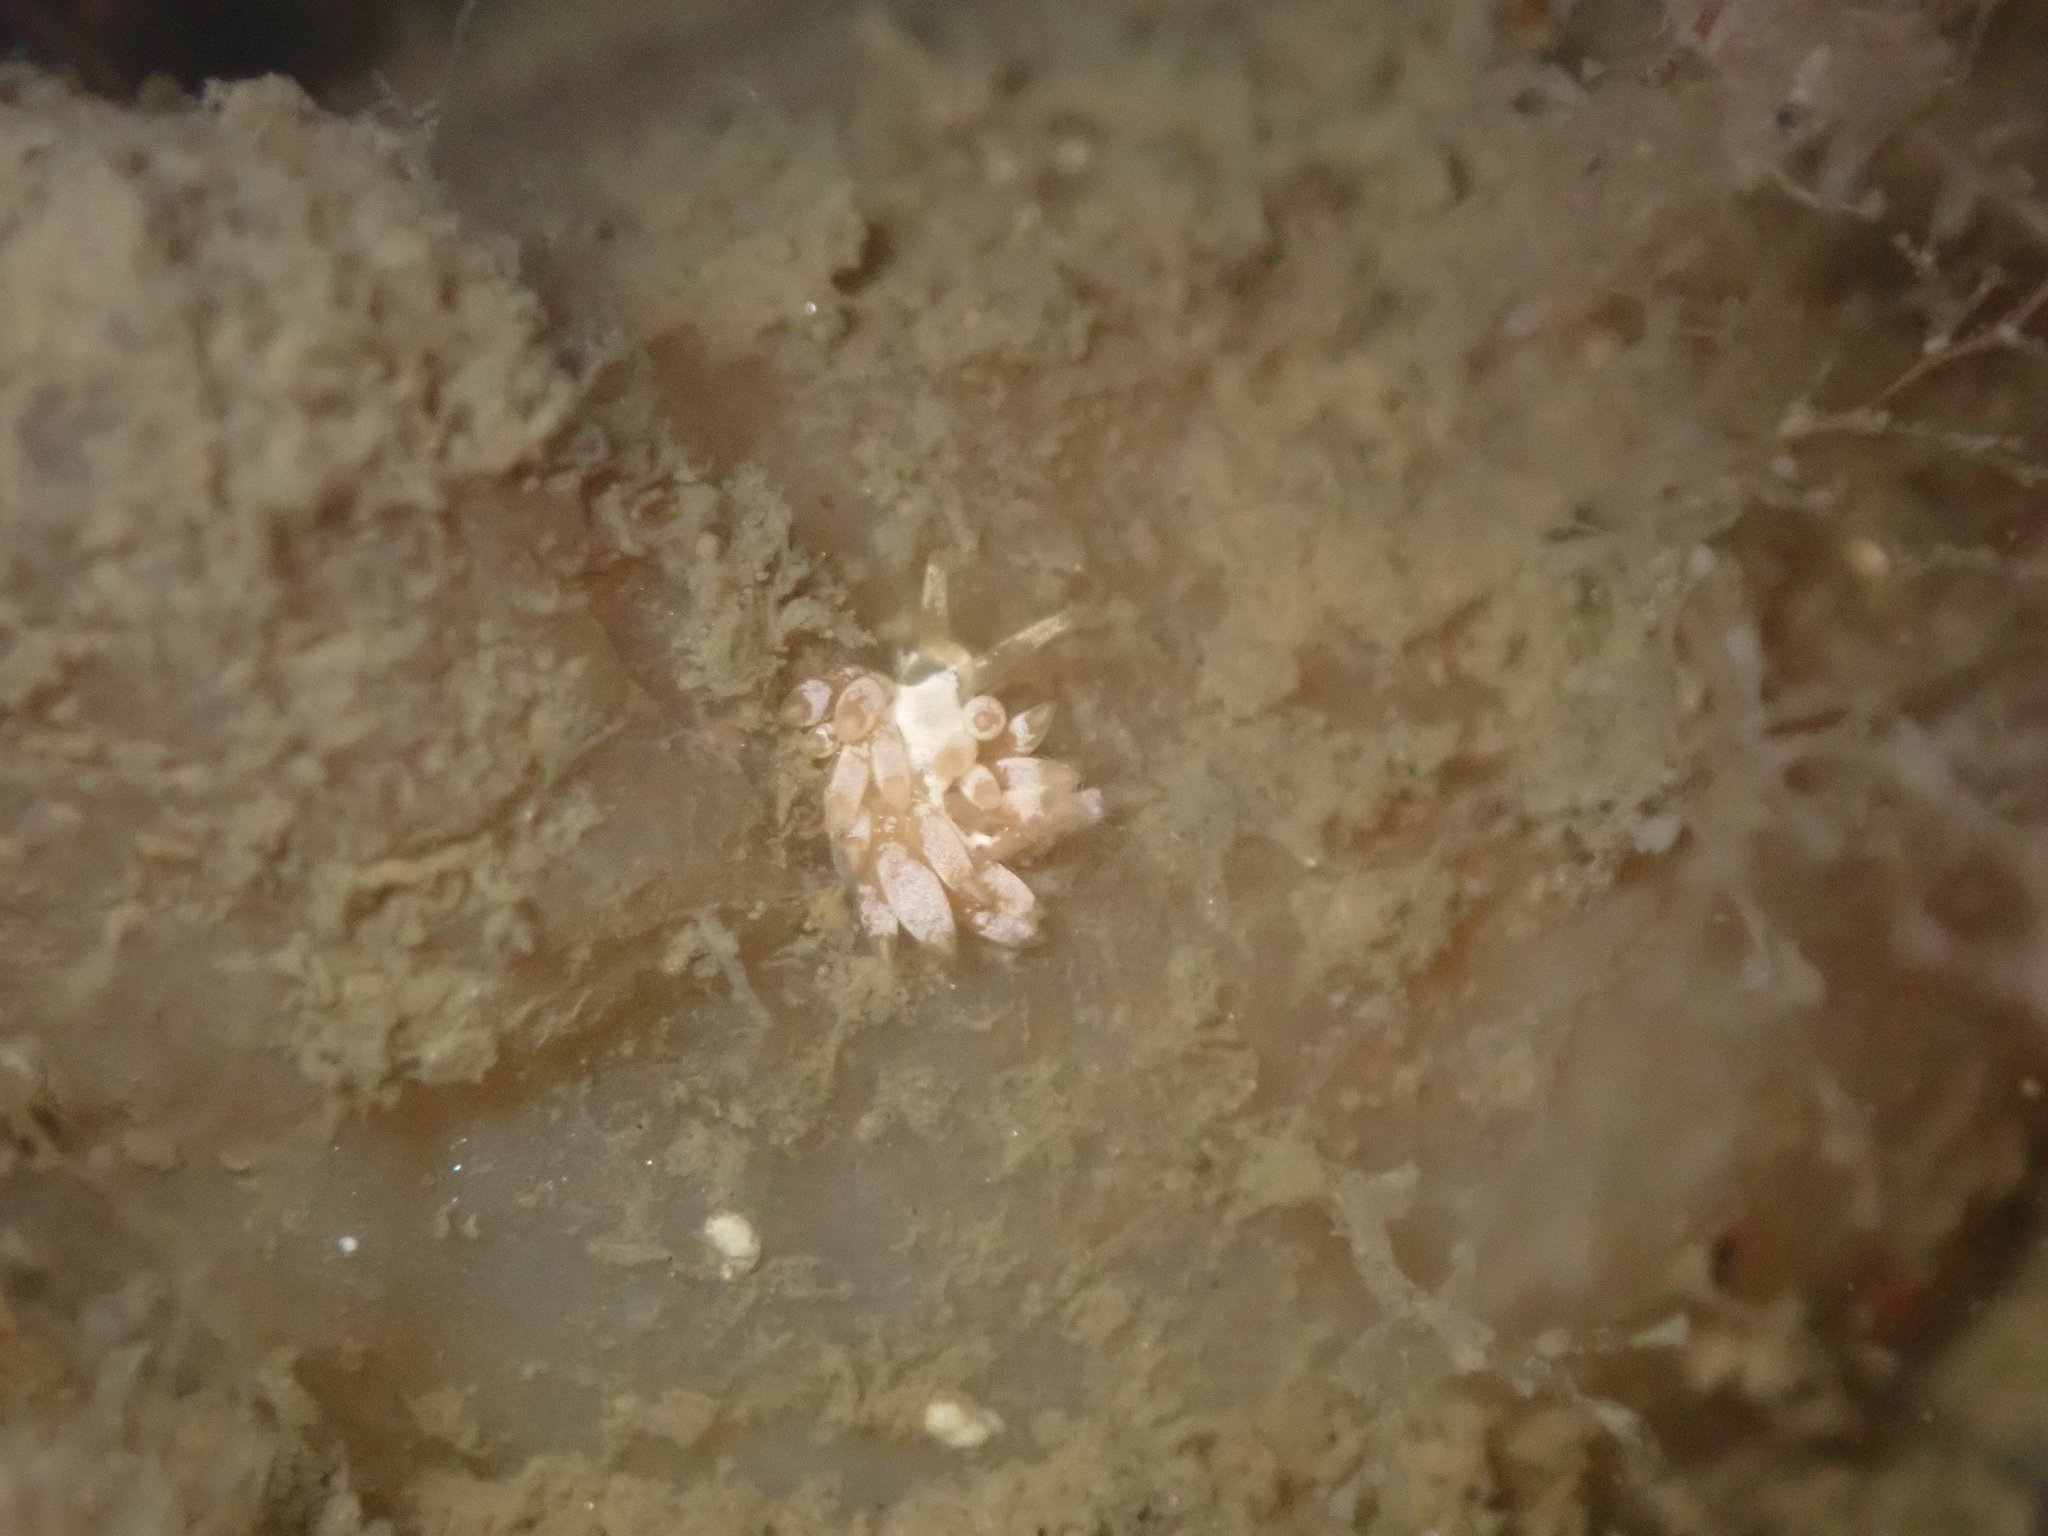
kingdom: Animalia
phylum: Mollusca
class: Gastropoda
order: Nudibranchia
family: Trinchesiidae
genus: Trinchesia
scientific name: Trinchesia albocrusta
